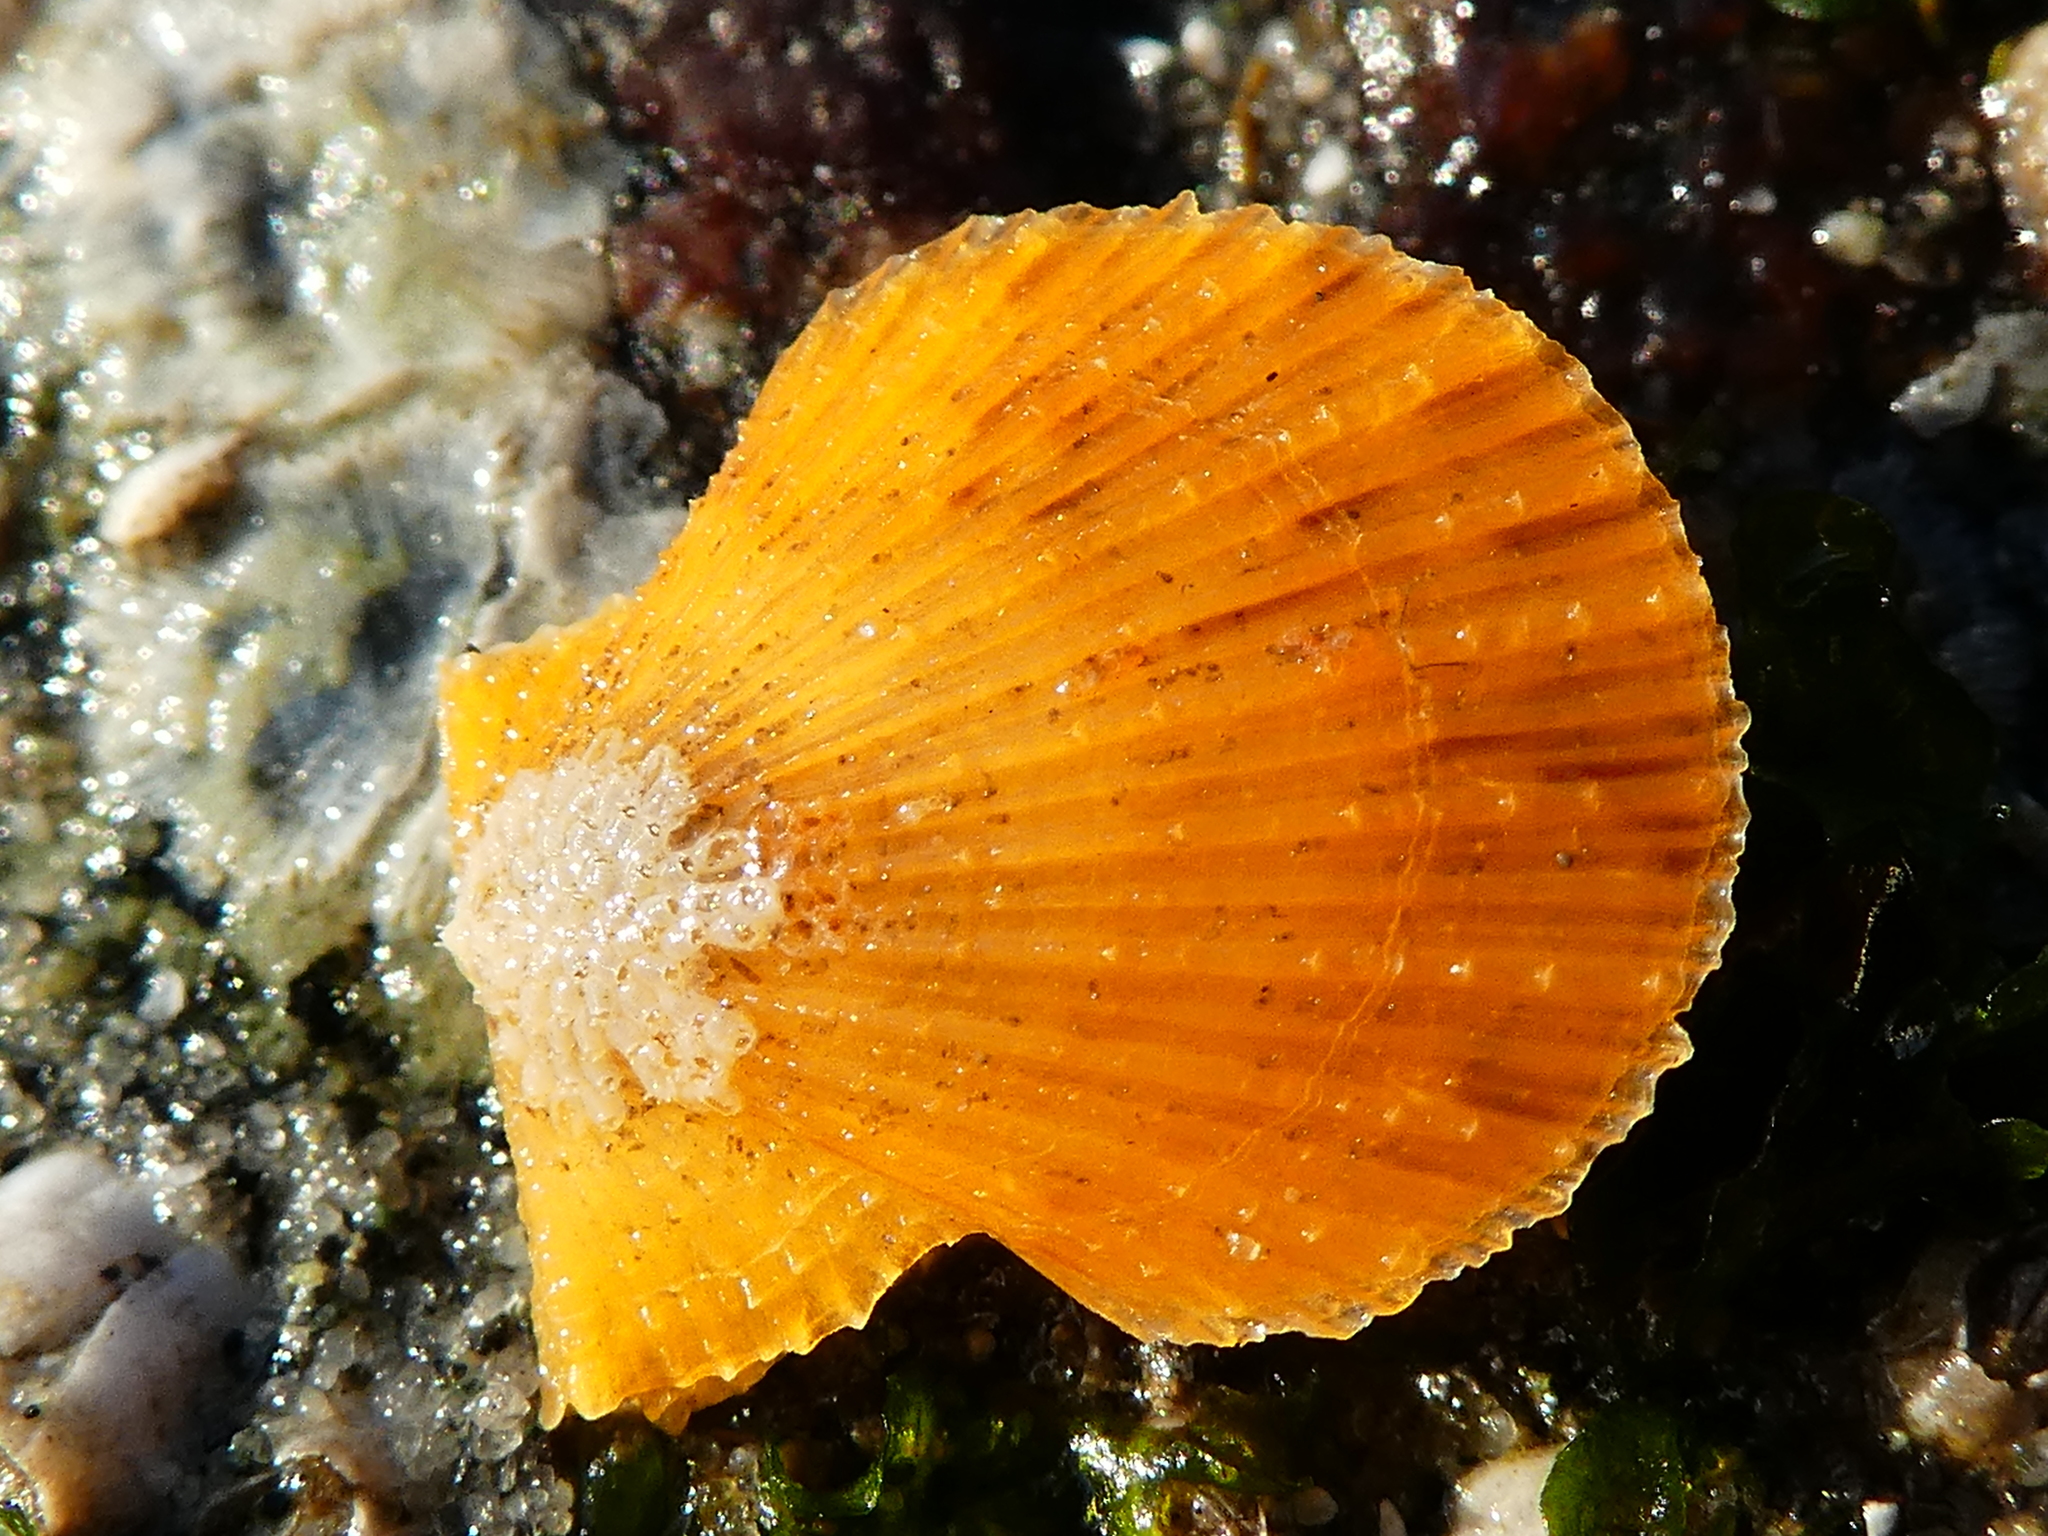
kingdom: Animalia
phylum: Mollusca
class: Bivalvia
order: Pectinida
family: Pectinidae
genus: Crassadoma
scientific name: Crassadoma gigantea
